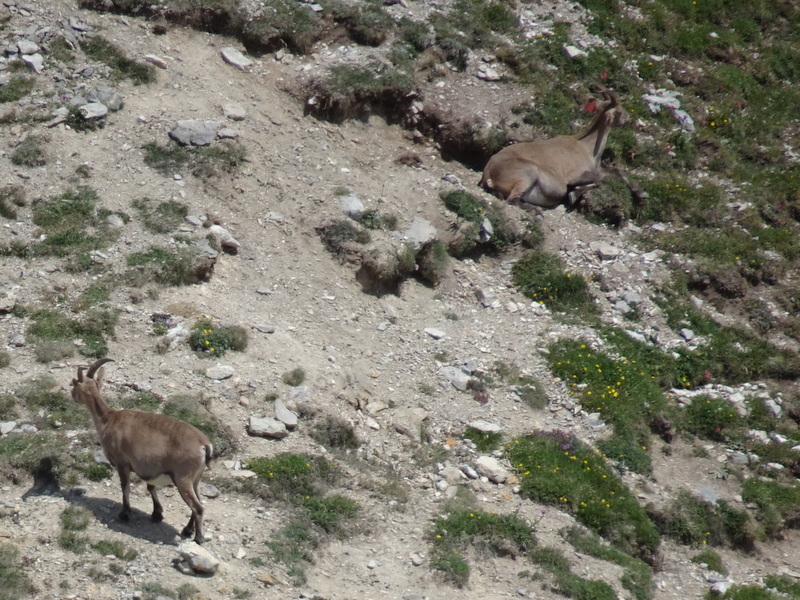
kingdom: Animalia
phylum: Chordata
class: Mammalia
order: Artiodactyla
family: Bovidae
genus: Capra
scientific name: Capra ibex
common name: Alpine ibex
